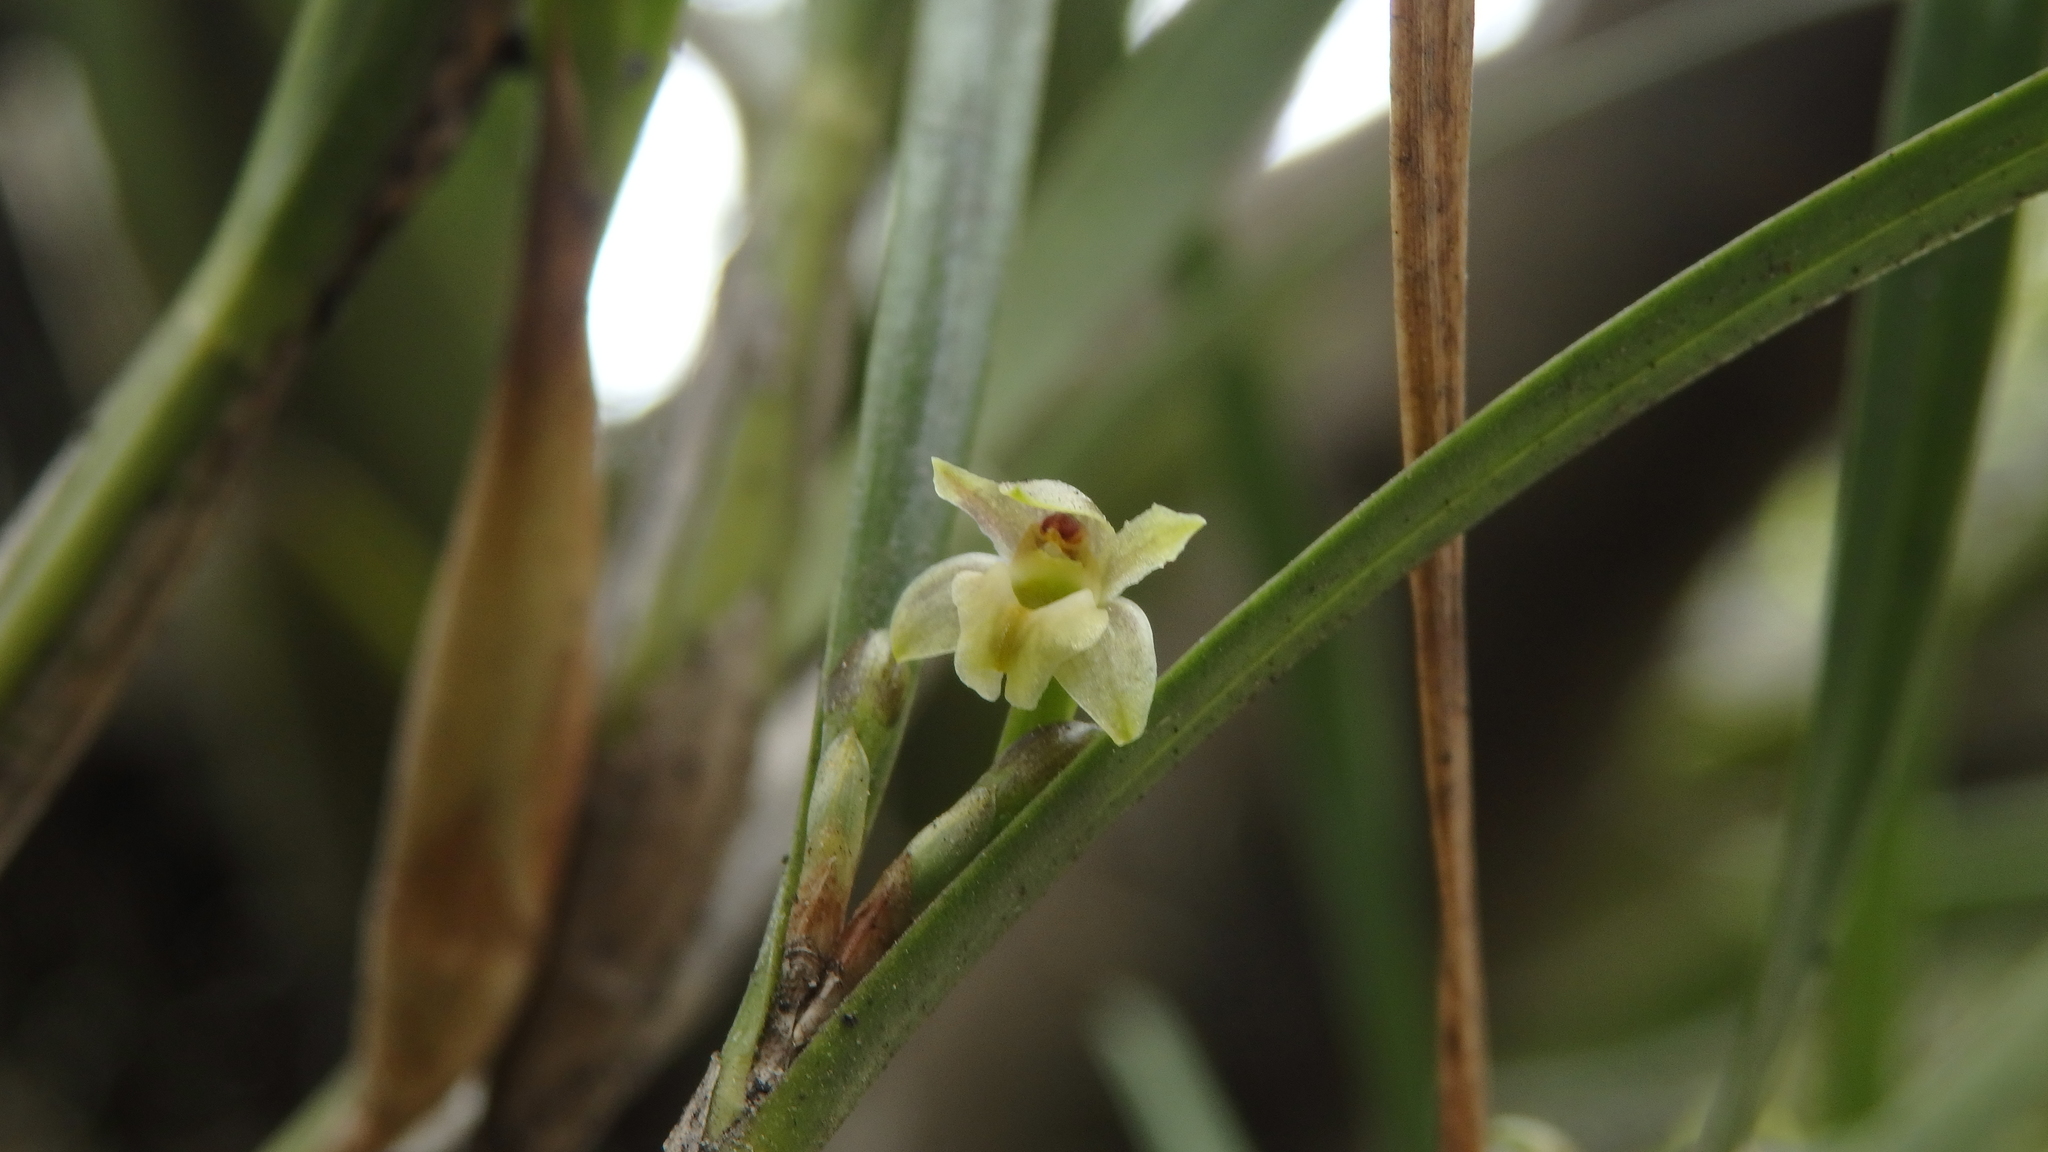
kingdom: Plantae
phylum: Tracheophyta
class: Liliopsida
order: Asparagales
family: Orchidaceae
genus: Scaphyglottis
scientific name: Scaphyglottis fasciculata
